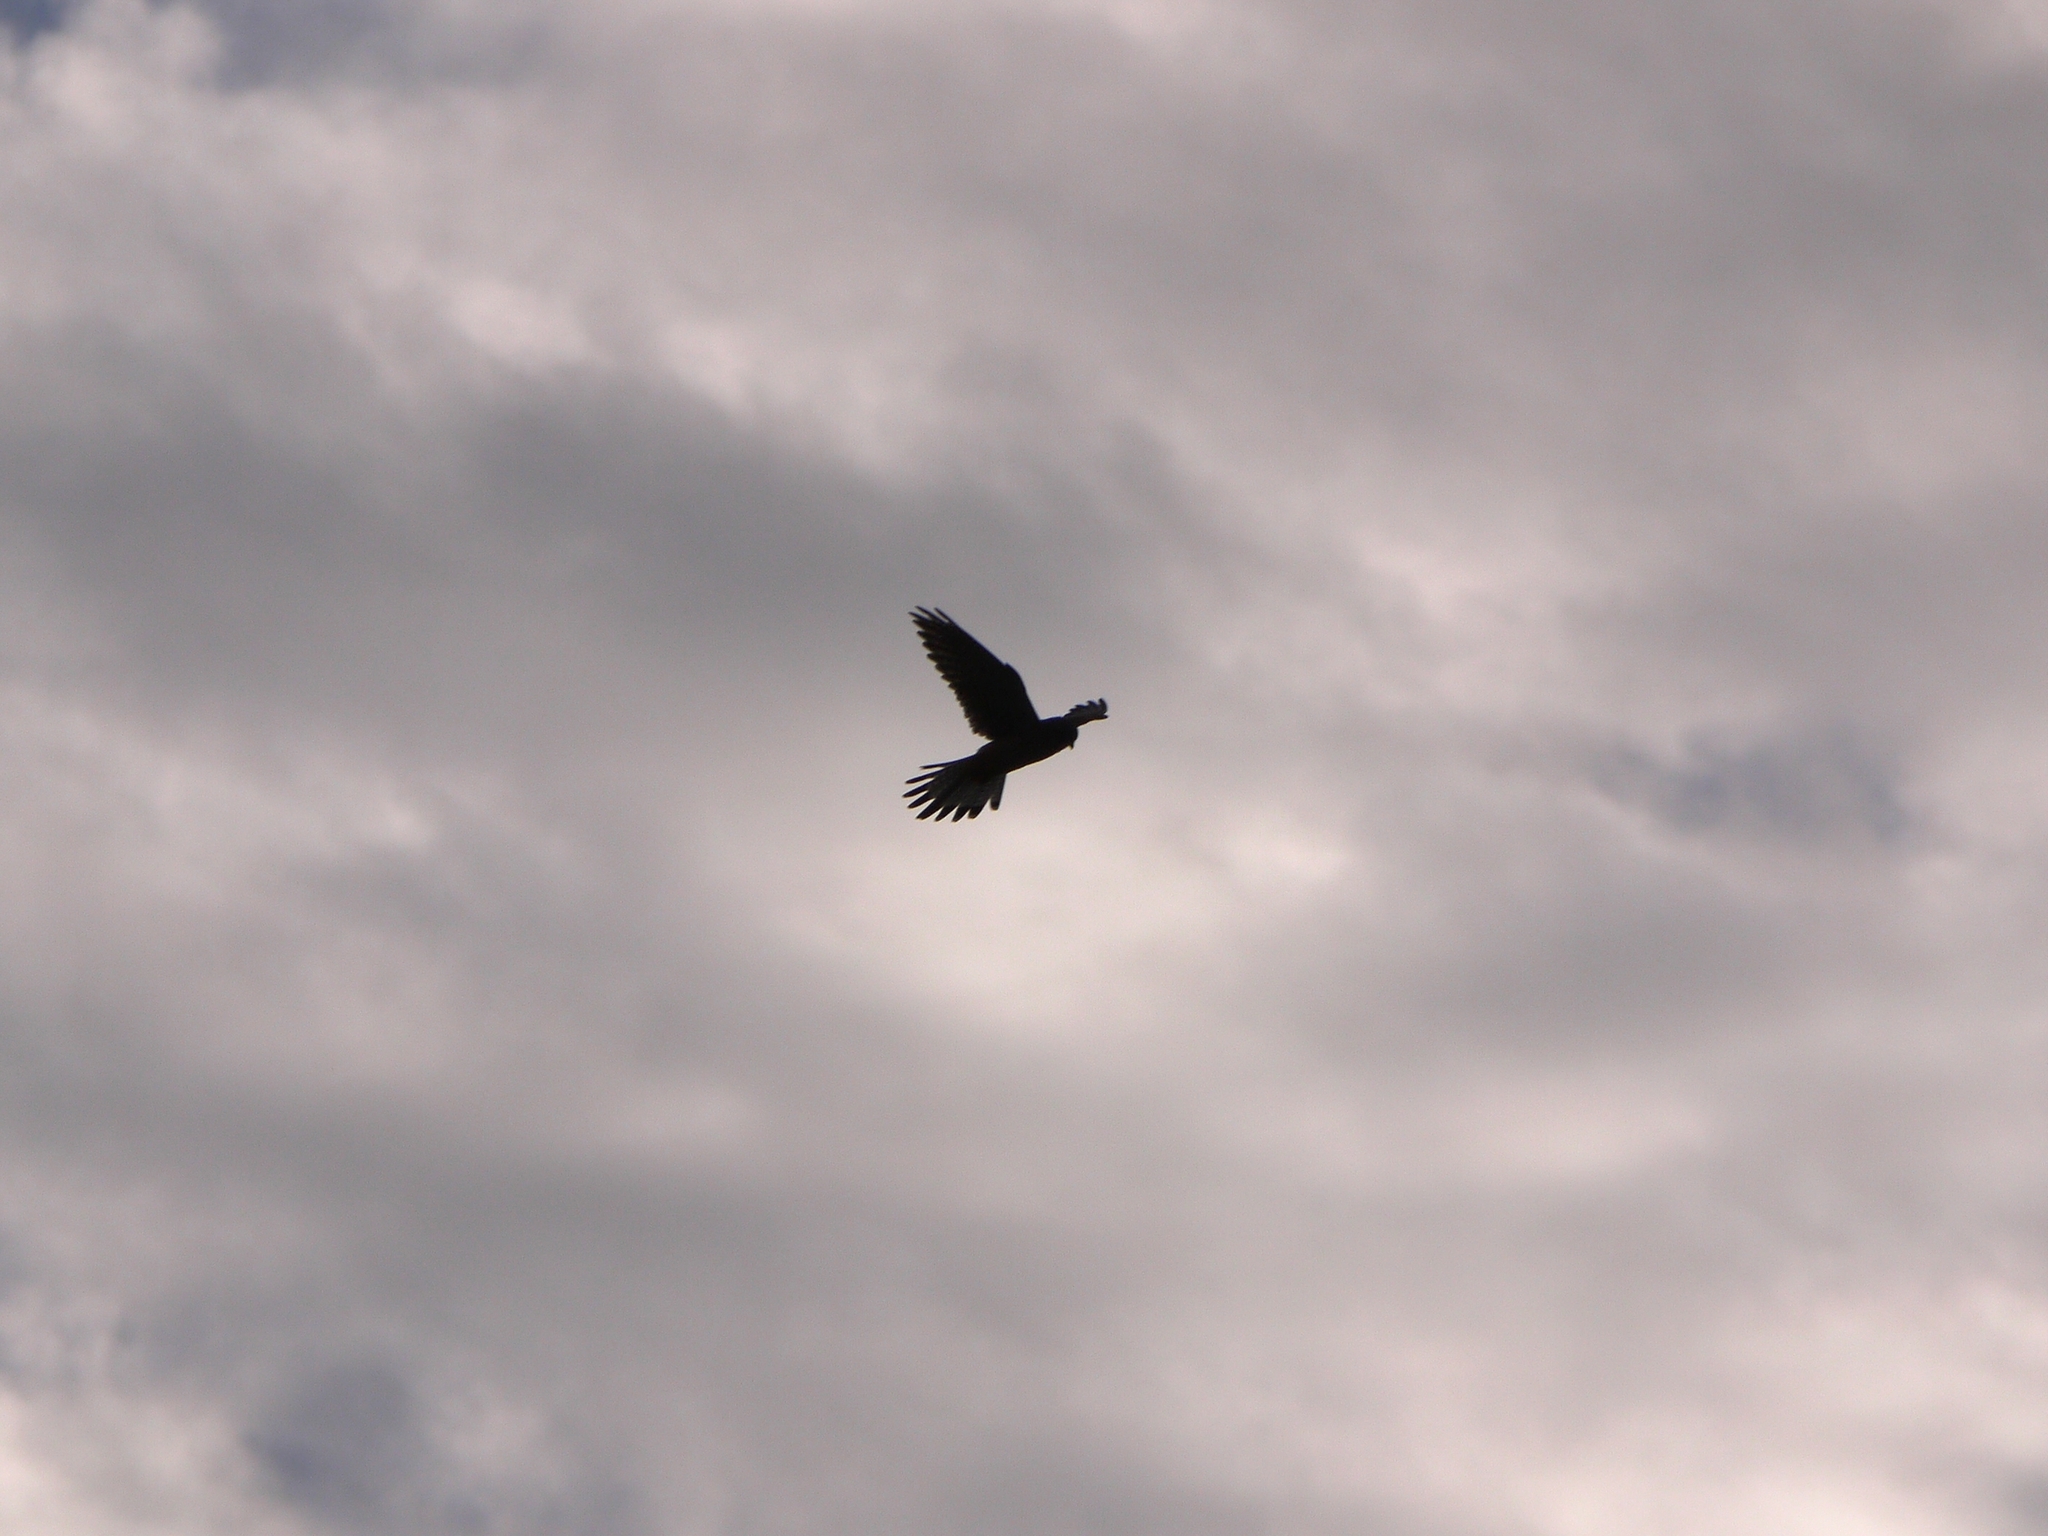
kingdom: Animalia
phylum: Chordata
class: Aves
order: Falconiformes
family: Falconidae
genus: Falco
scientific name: Falco tinnunculus
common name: Common kestrel
